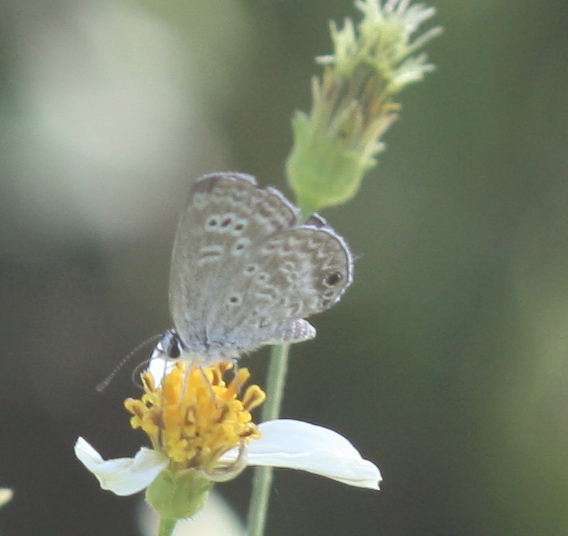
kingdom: Animalia
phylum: Arthropoda
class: Insecta
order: Lepidoptera
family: Lycaenidae
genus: Echinargus
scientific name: Echinargus isola
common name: Reakirt's blue
